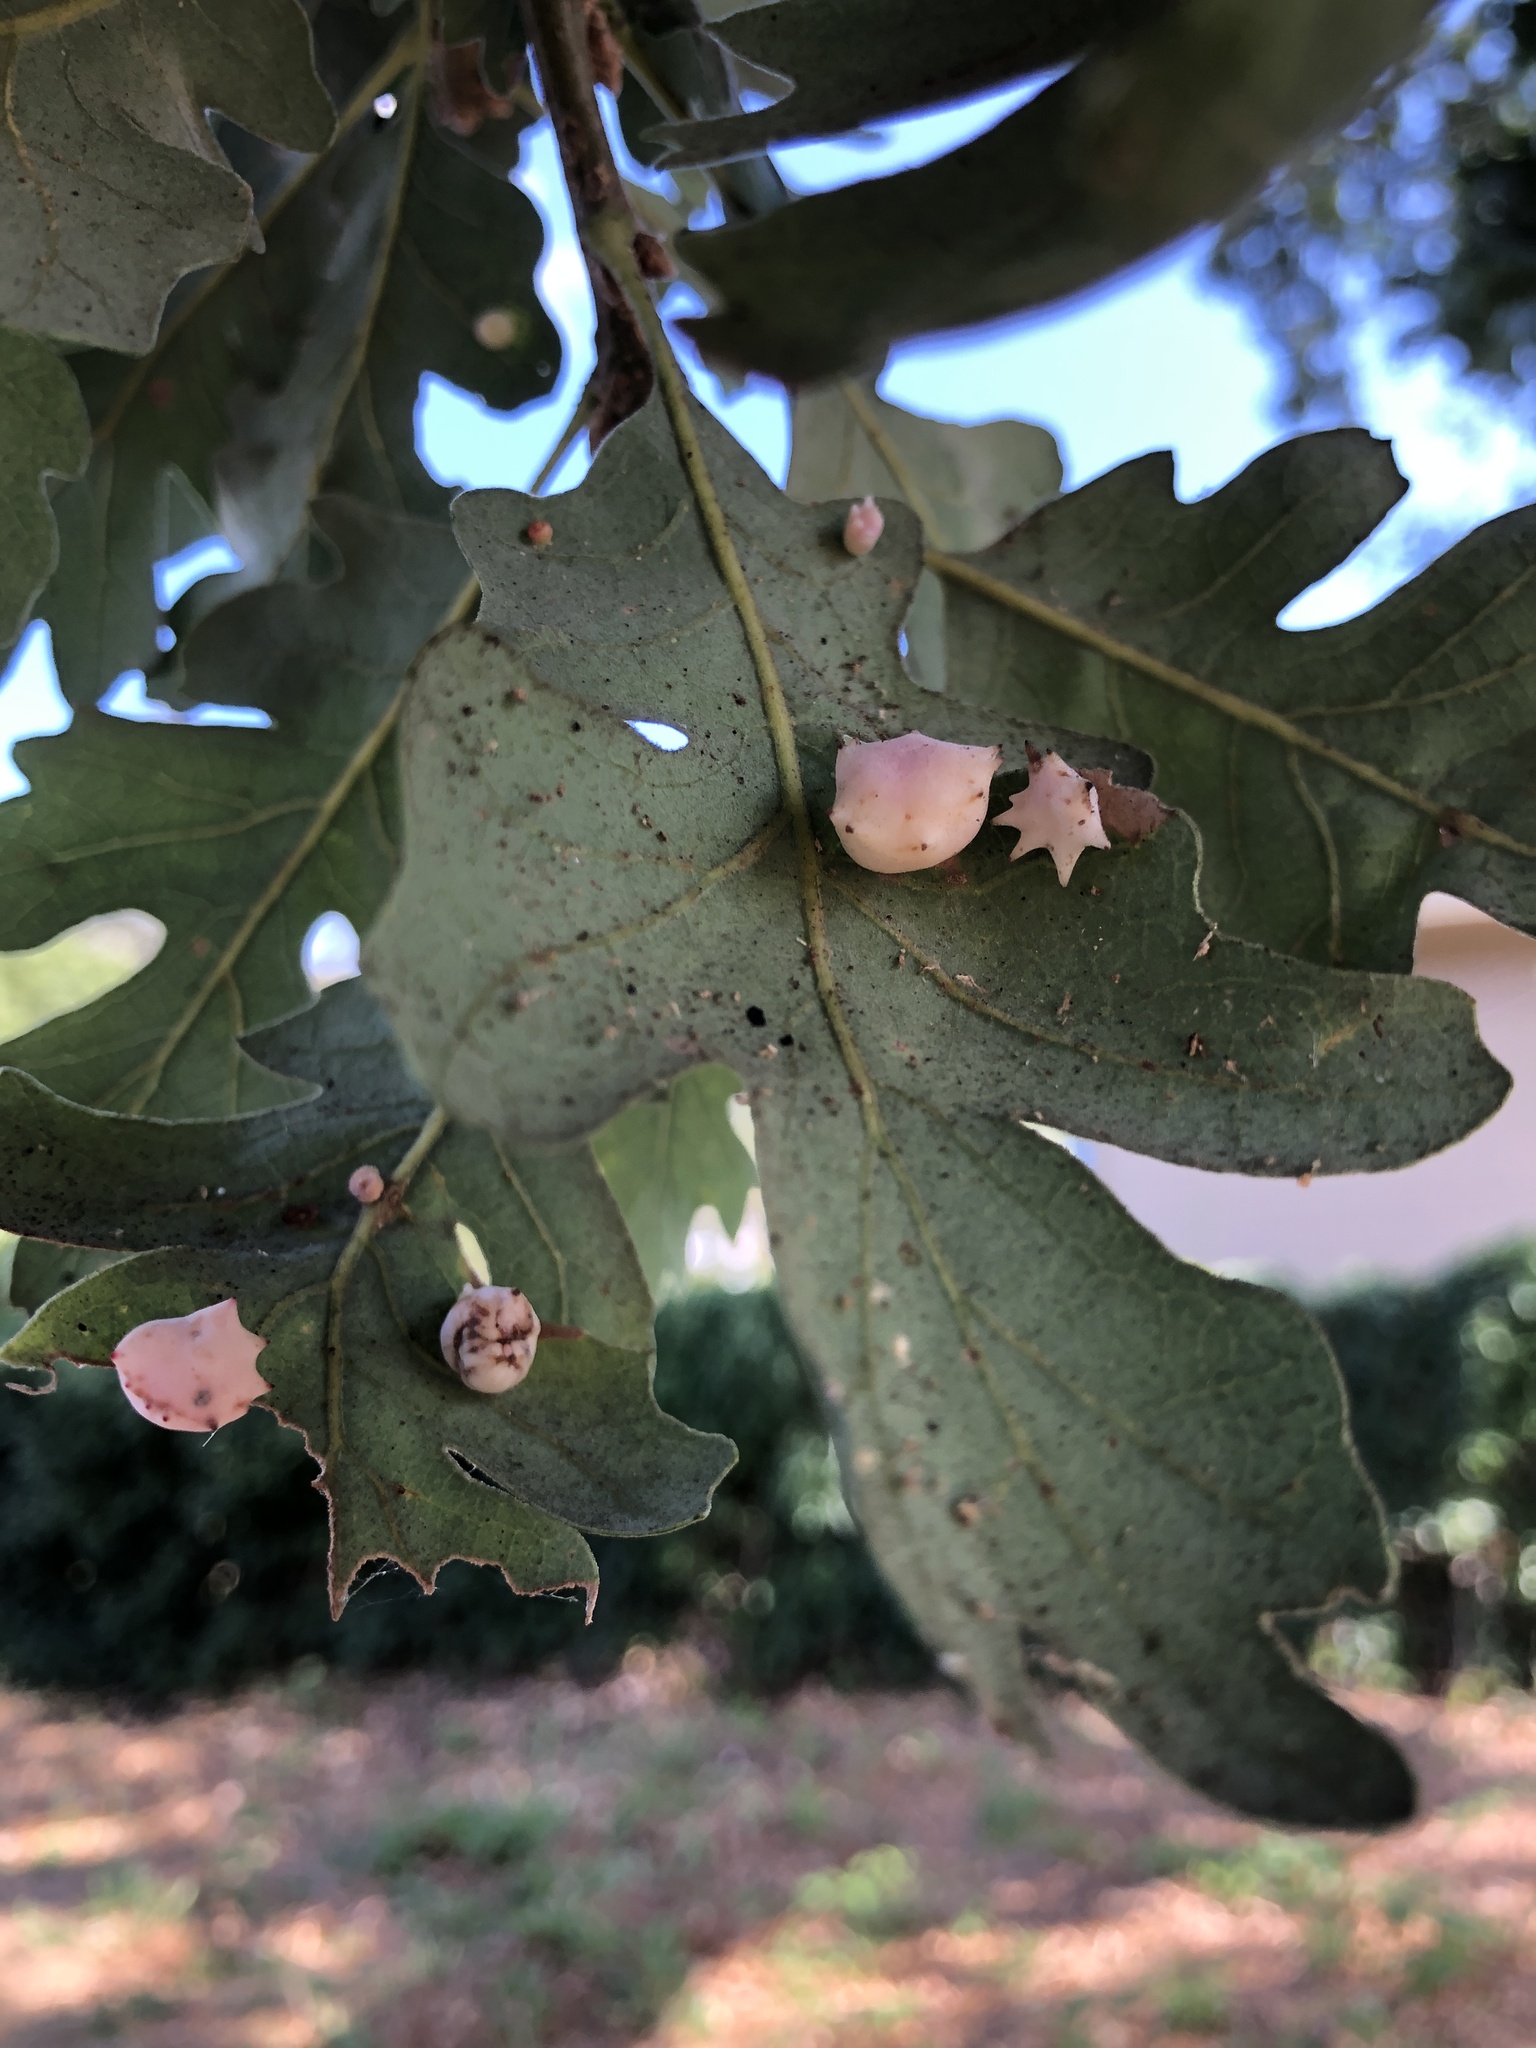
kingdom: Animalia
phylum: Arthropoda
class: Insecta
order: Hymenoptera
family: Cynipidae
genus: Cynips
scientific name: Cynips douglasi
